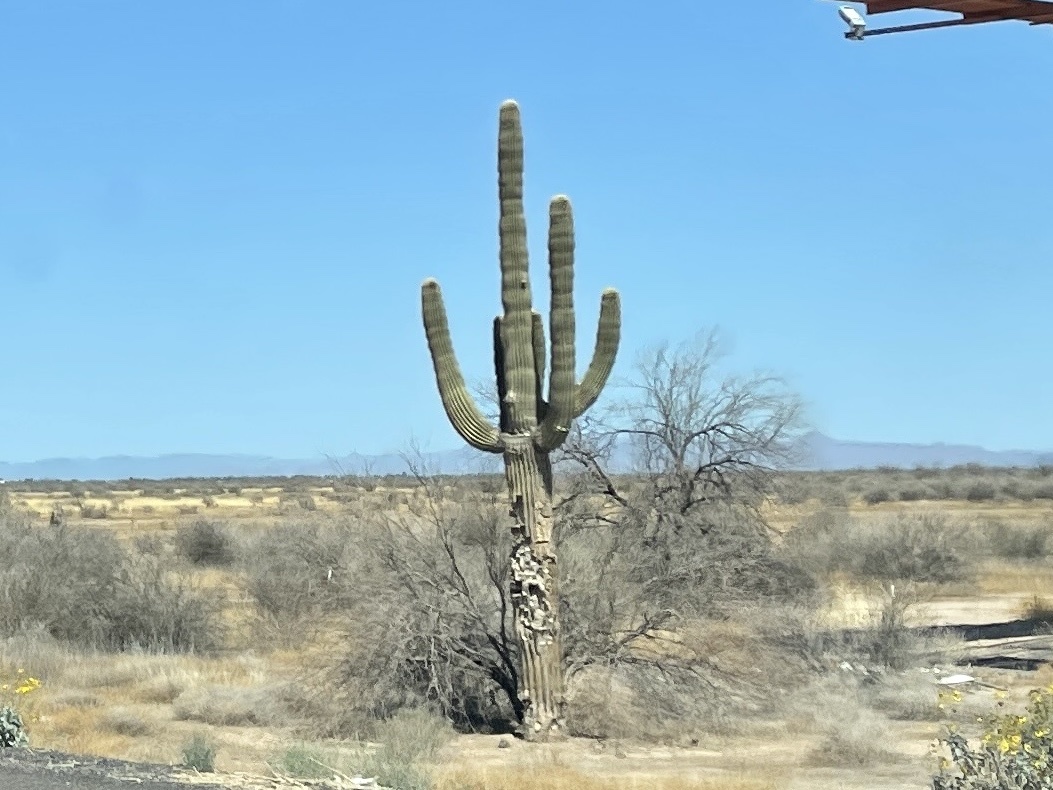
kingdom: Plantae
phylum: Tracheophyta
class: Magnoliopsida
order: Caryophyllales
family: Cactaceae
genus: Carnegiea
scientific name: Carnegiea gigantea
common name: Saguaro
